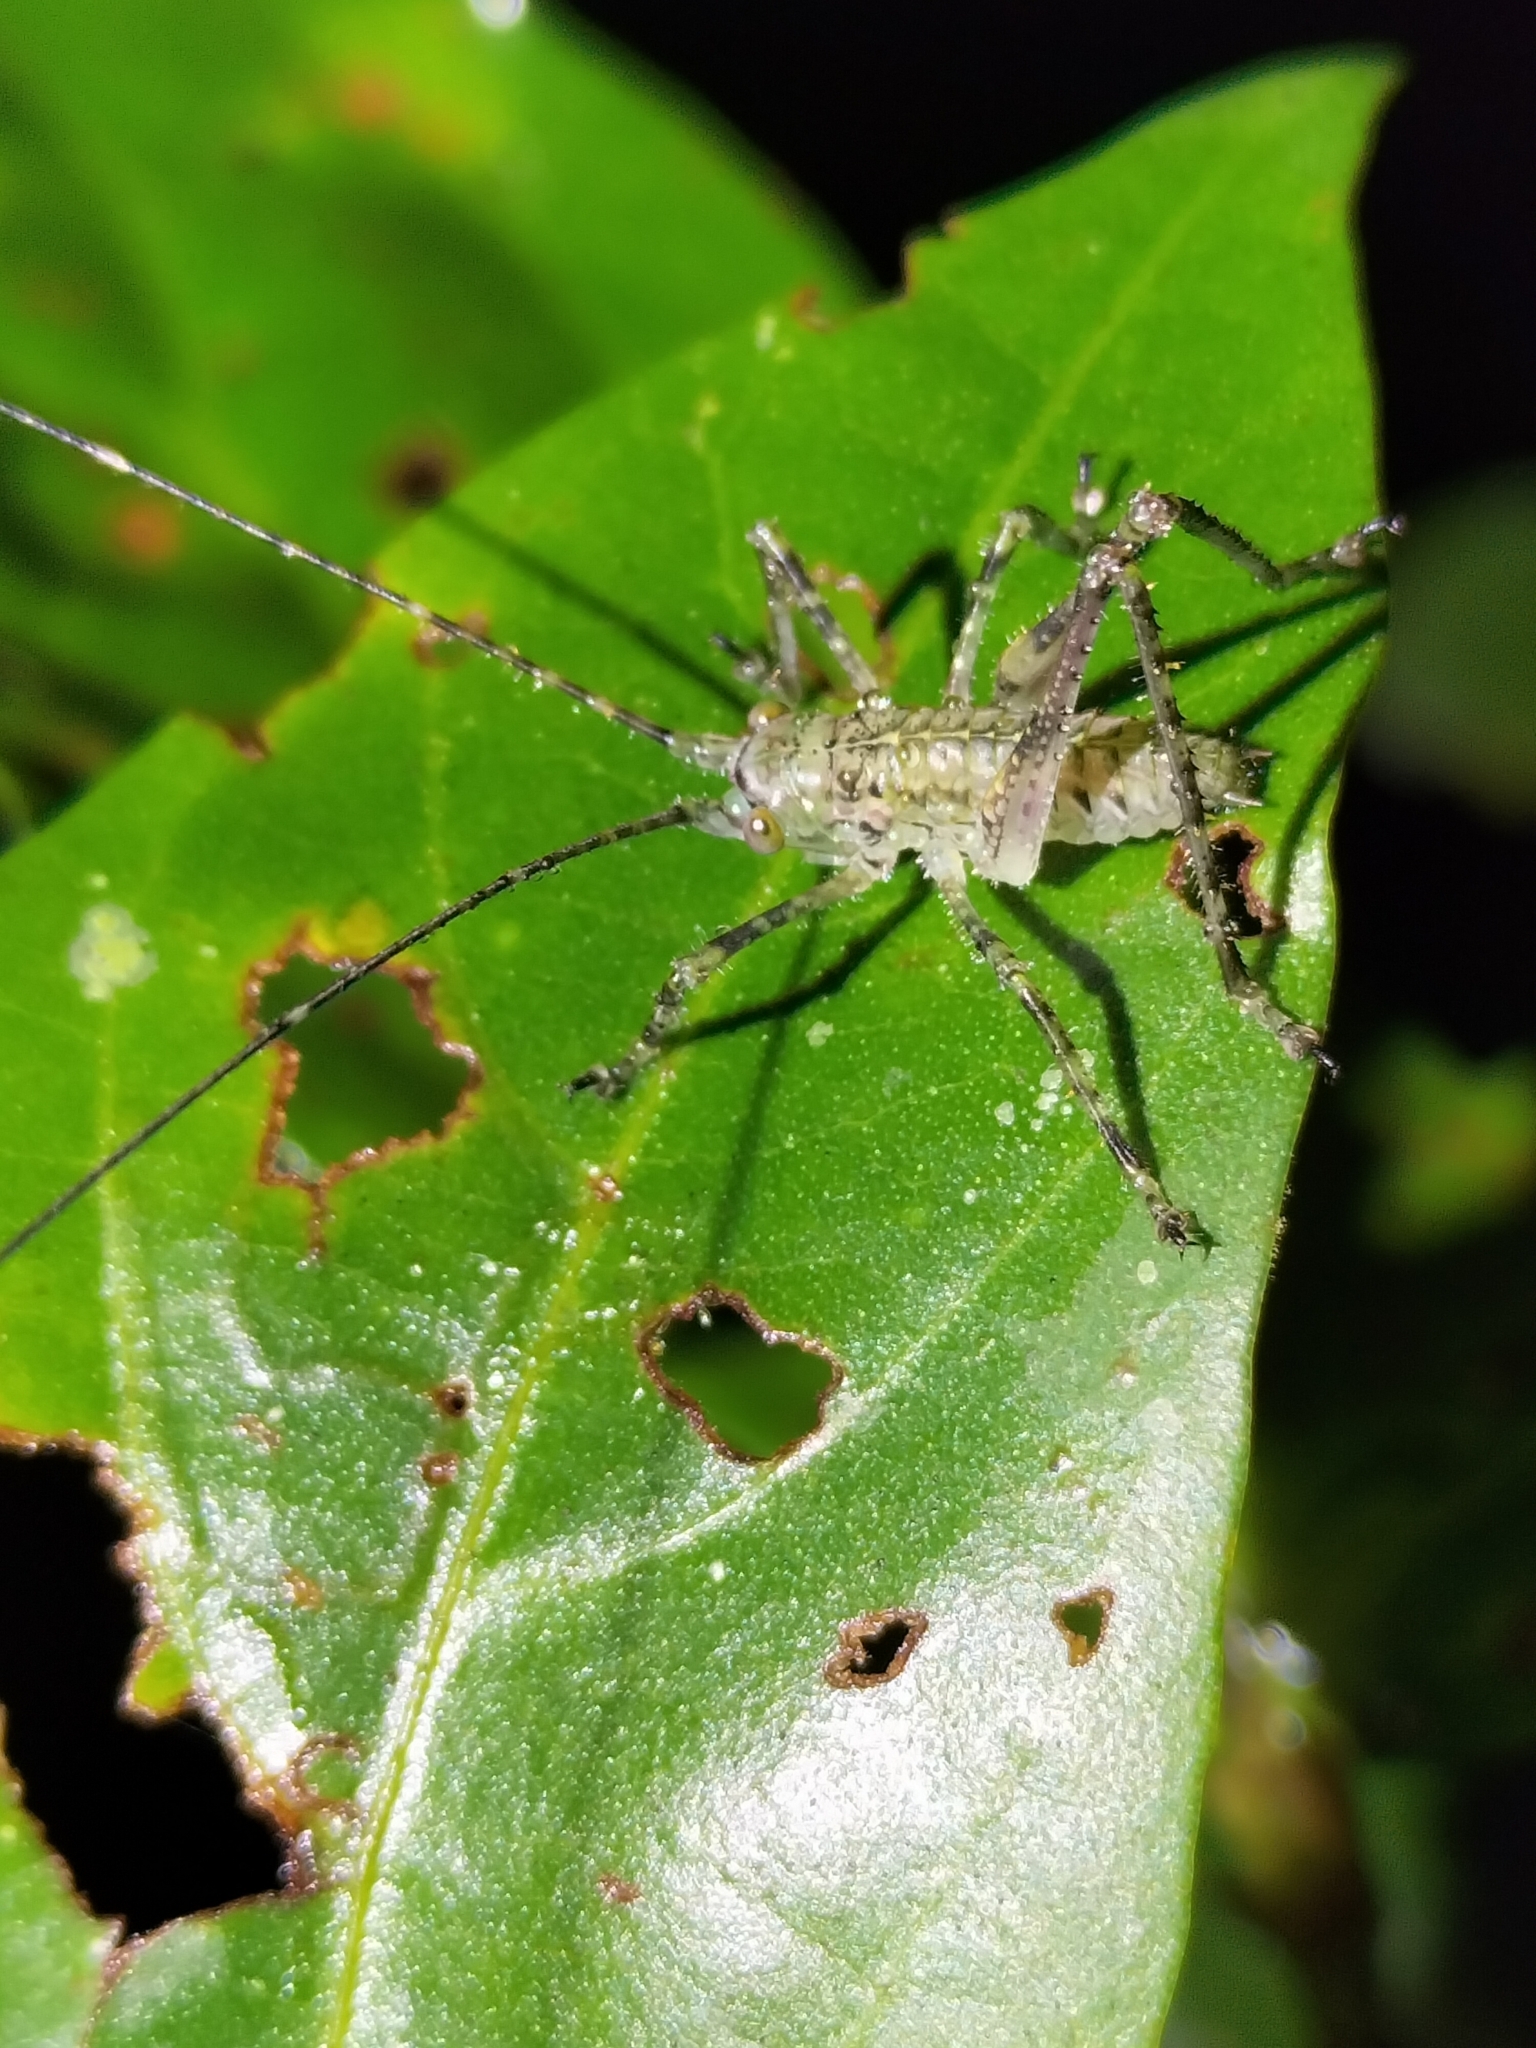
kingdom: Animalia
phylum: Arthropoda
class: Insecta
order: Orthoptera
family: Tettigoniidae
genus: Phricta
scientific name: Phricta spinosa
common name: Giant spiny forest katydid
